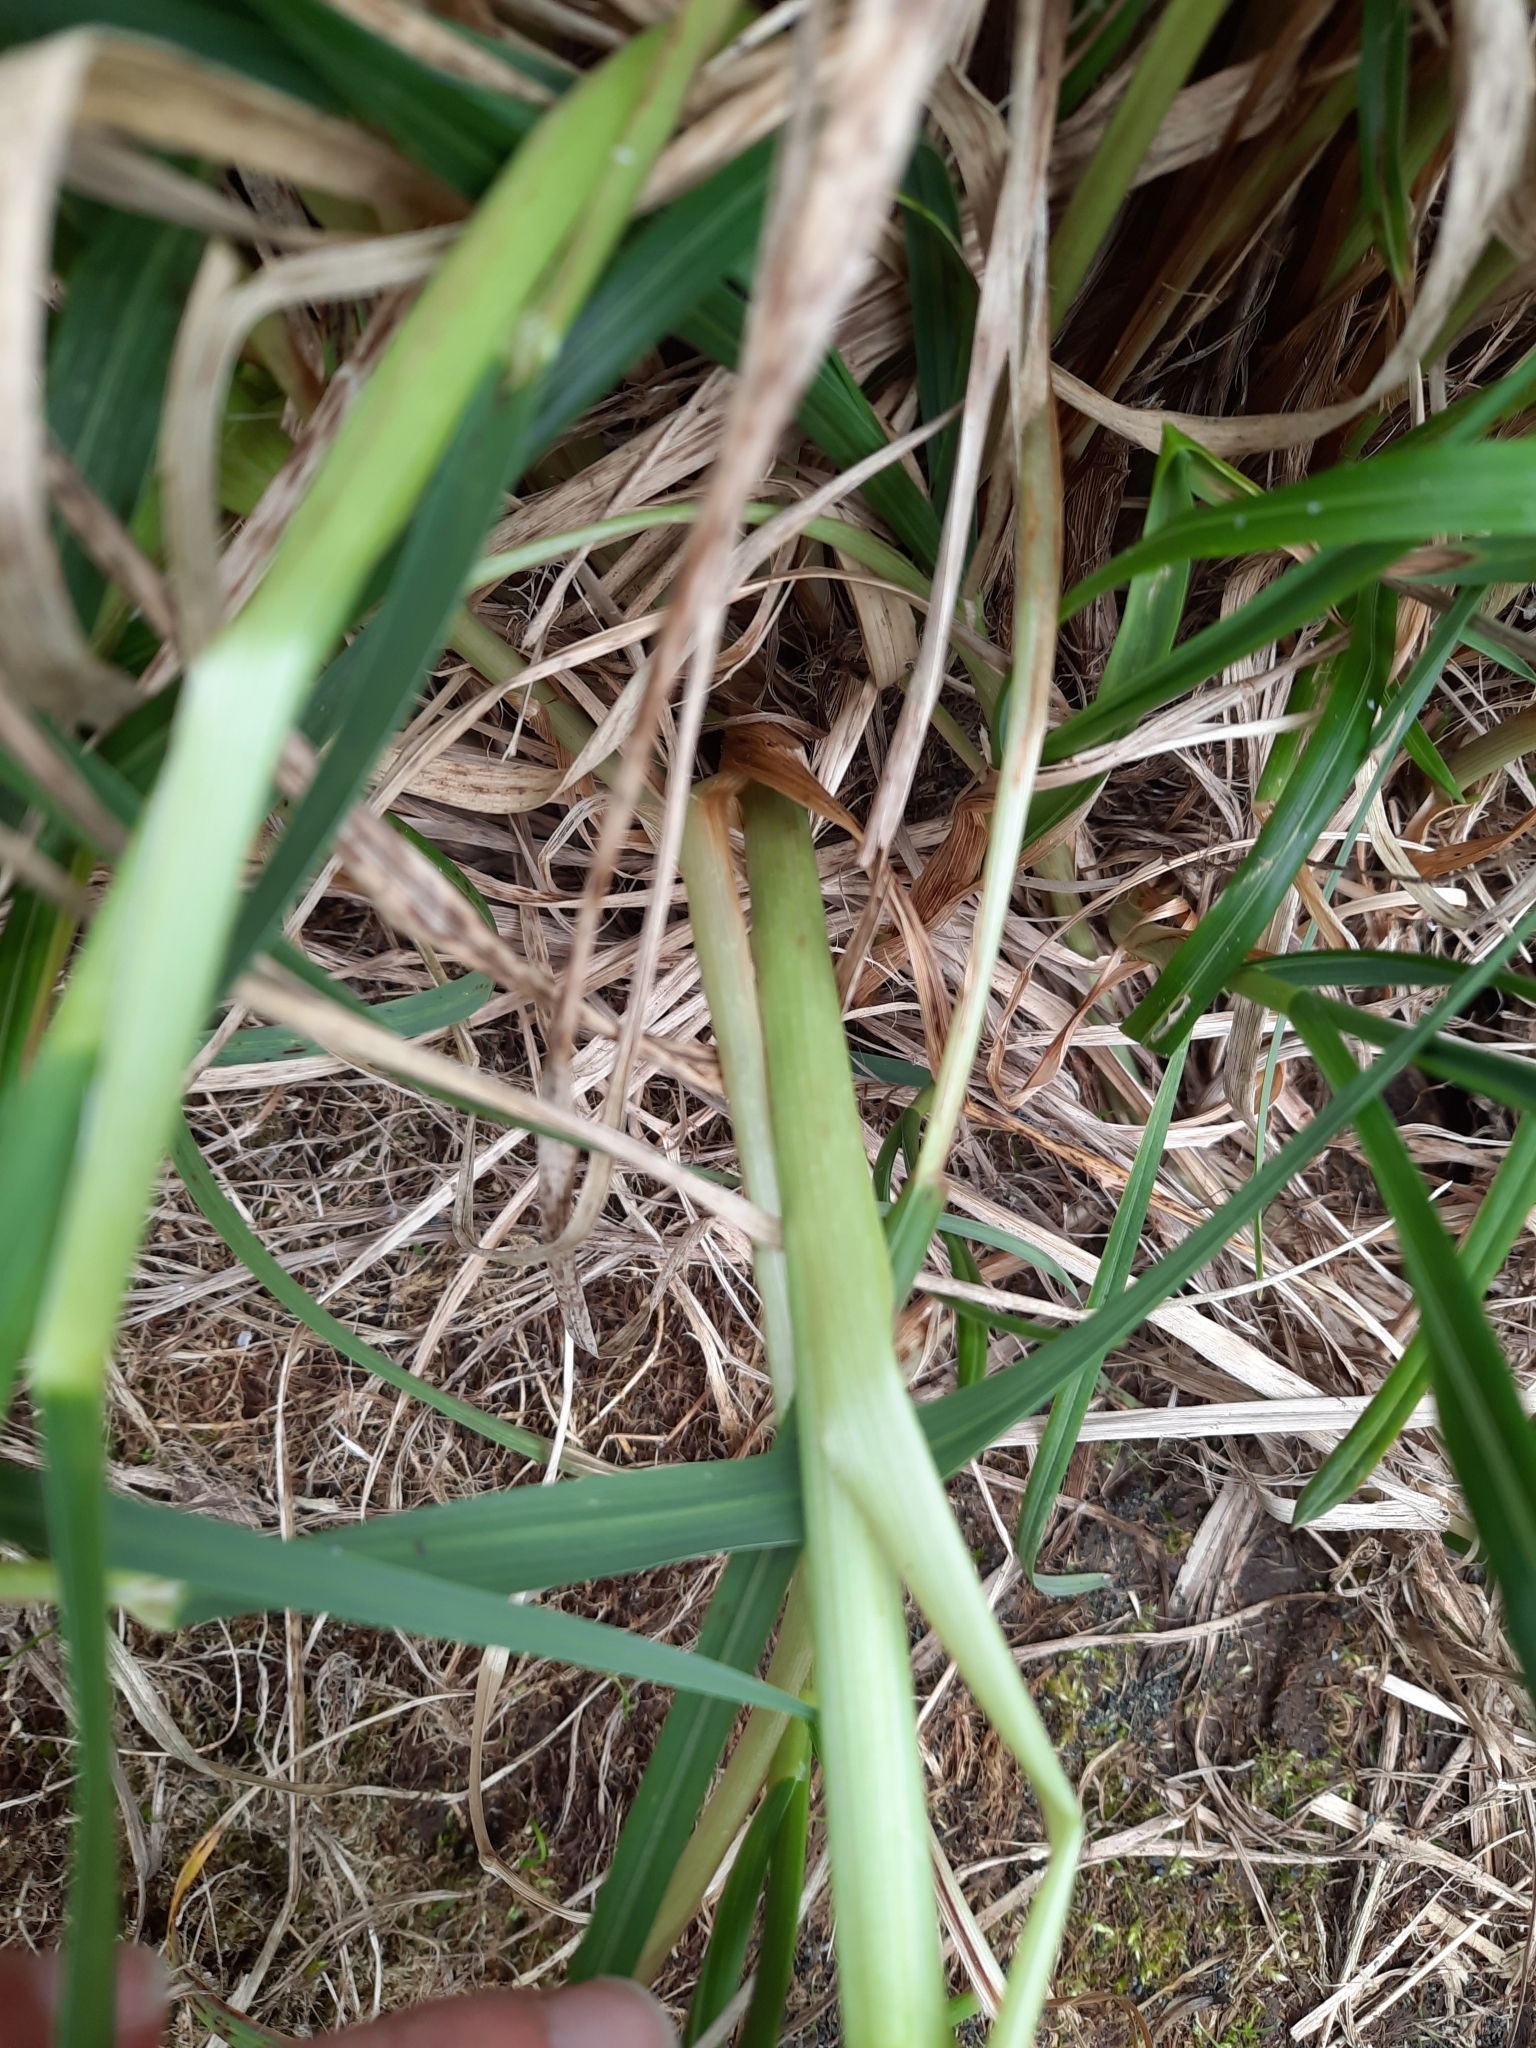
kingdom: Plantae
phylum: Tracheophyta
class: Liliopsida
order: Poales
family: Poaceae
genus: Poa
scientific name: Poa foliosa
